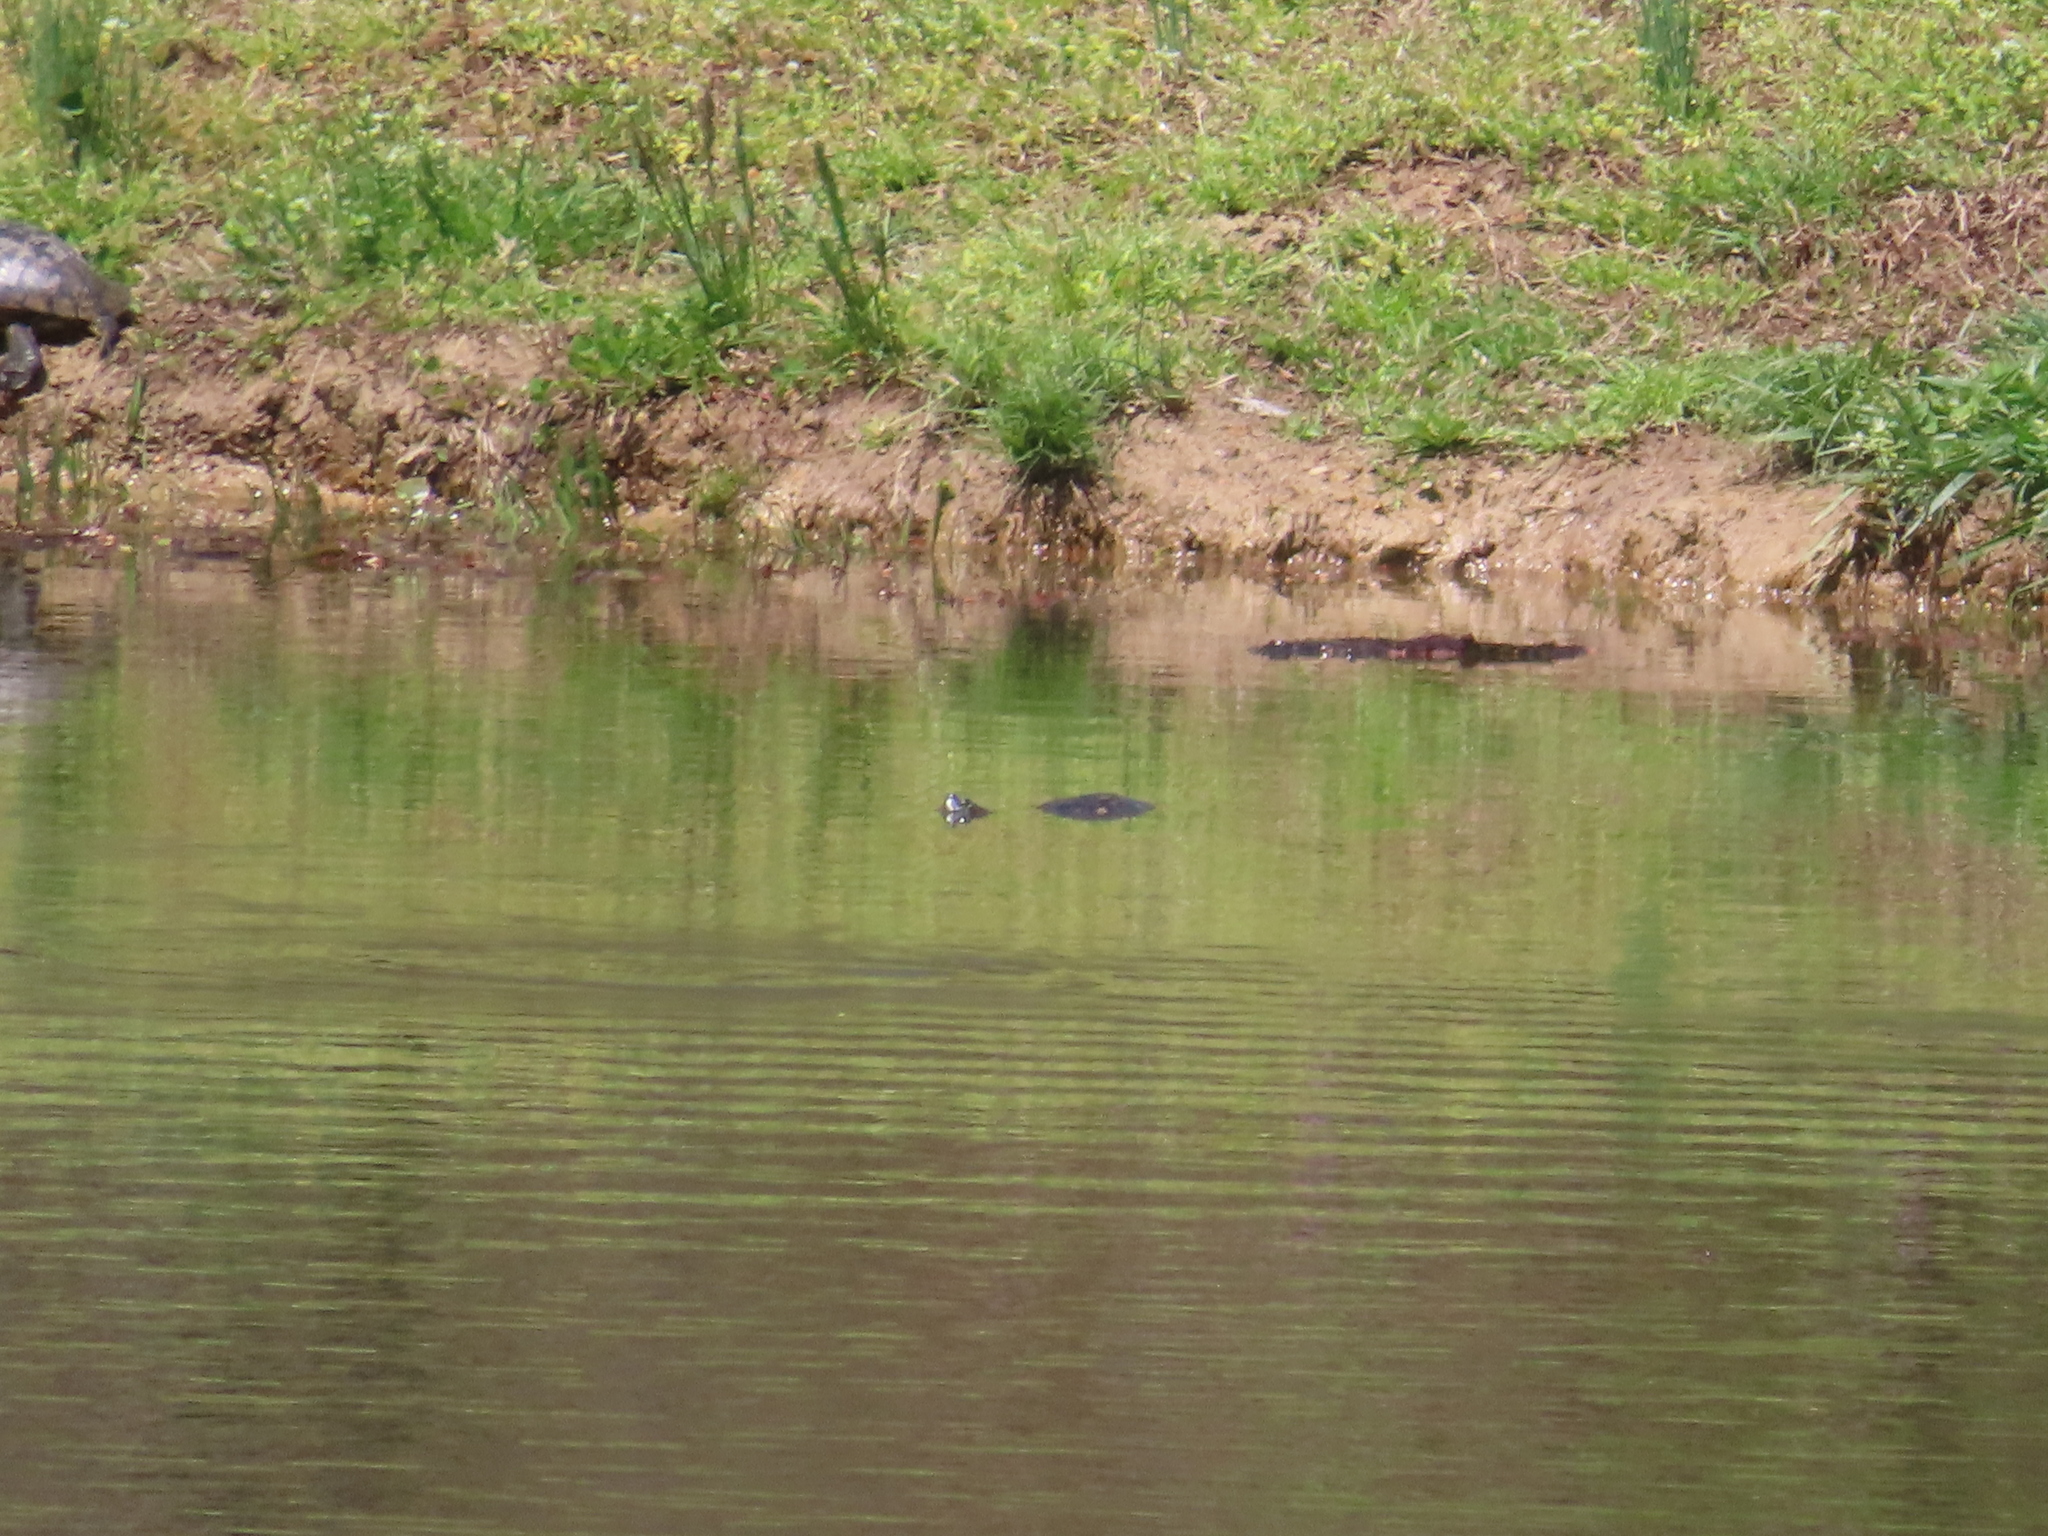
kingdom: Animalia
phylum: Chordata
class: Testudines
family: Emydidae
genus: Trachemys
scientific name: Trachemys scripta
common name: Slider
